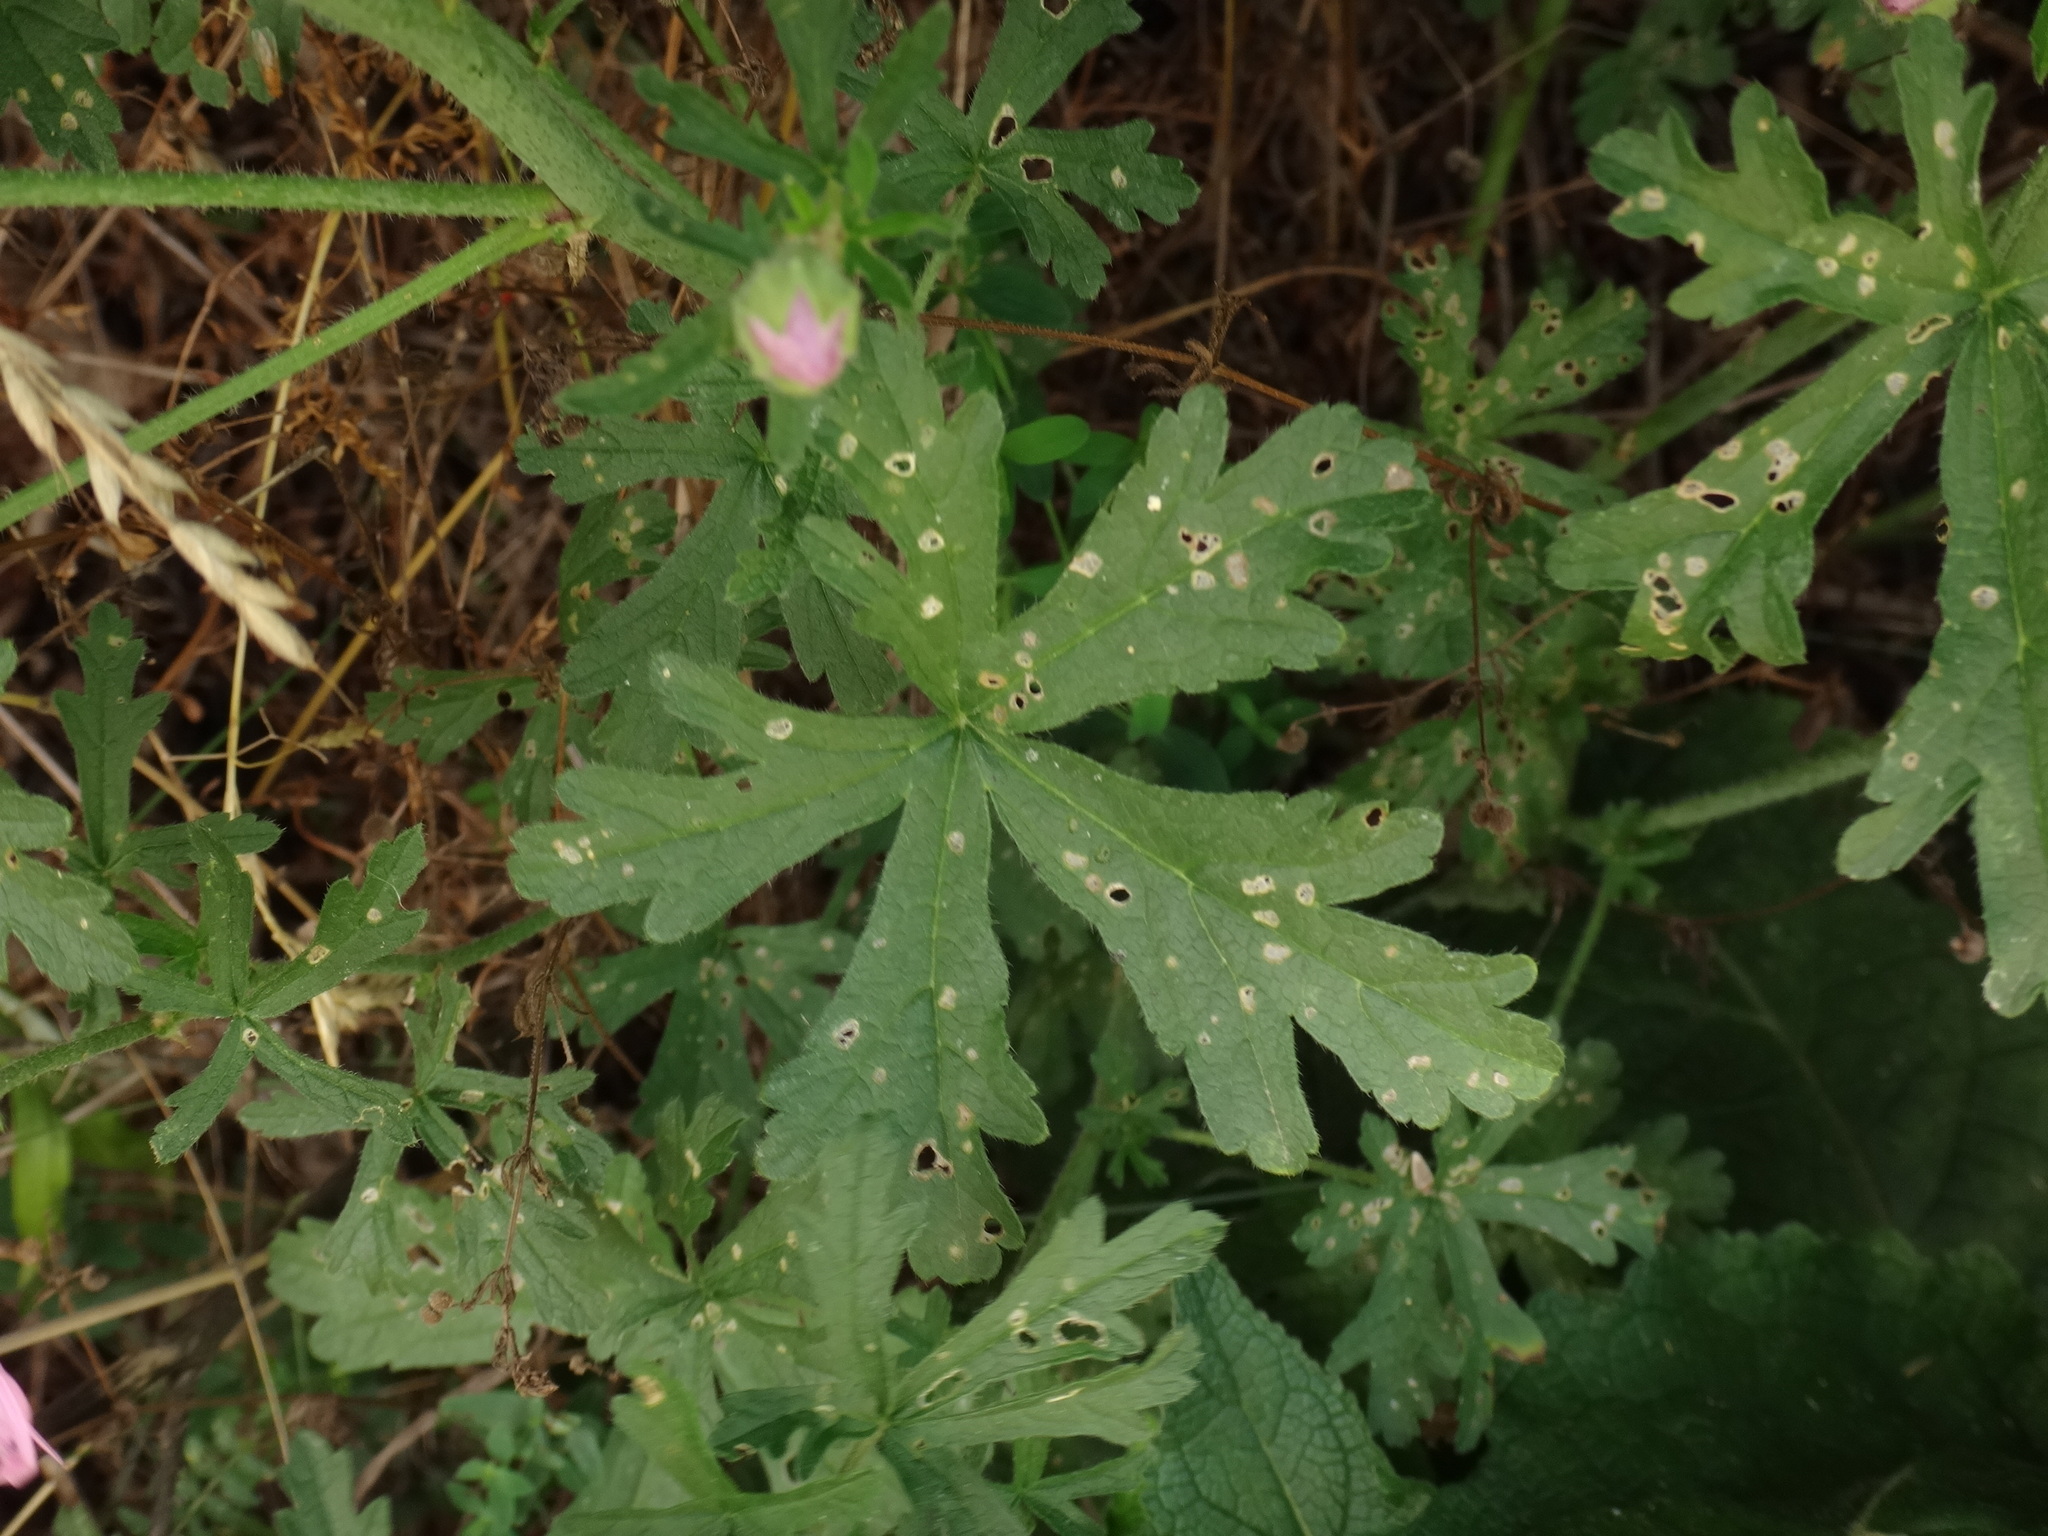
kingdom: Plantae
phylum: Tracheophyta
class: Magnoliopsida
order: Malvales
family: Malvaceae
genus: Malva
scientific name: Malva alcea
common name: Greater musk-mallow
